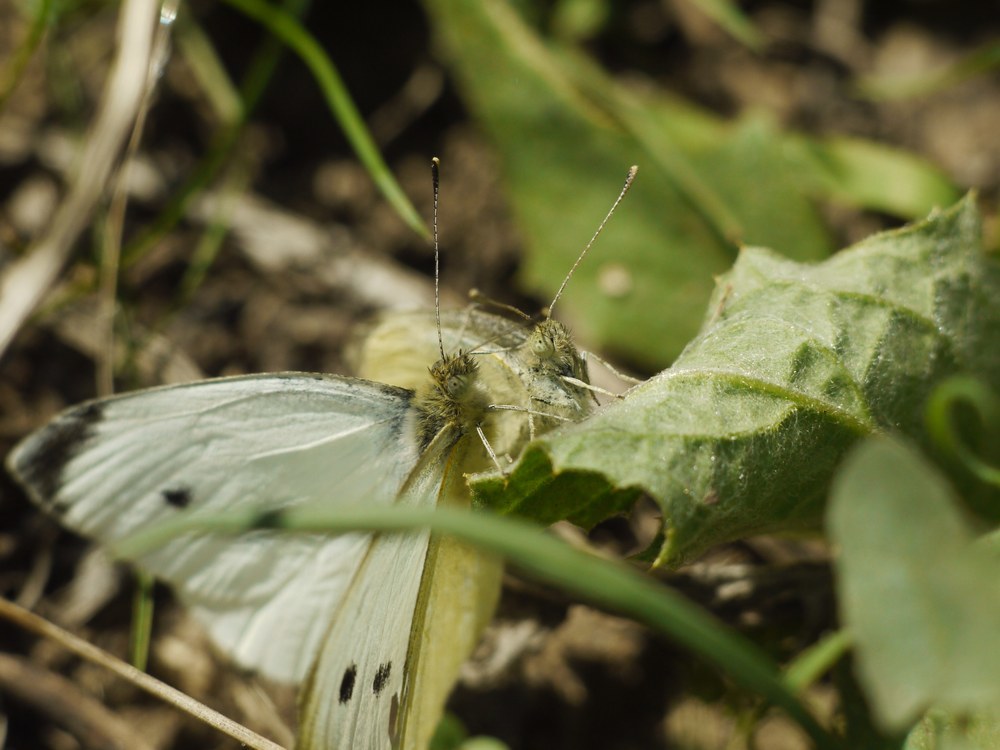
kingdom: Animalia
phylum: Arthropoda
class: Insecta
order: Lepidoptera
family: Pieridae
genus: Pieris
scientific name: Pieris rapae
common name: Small white
